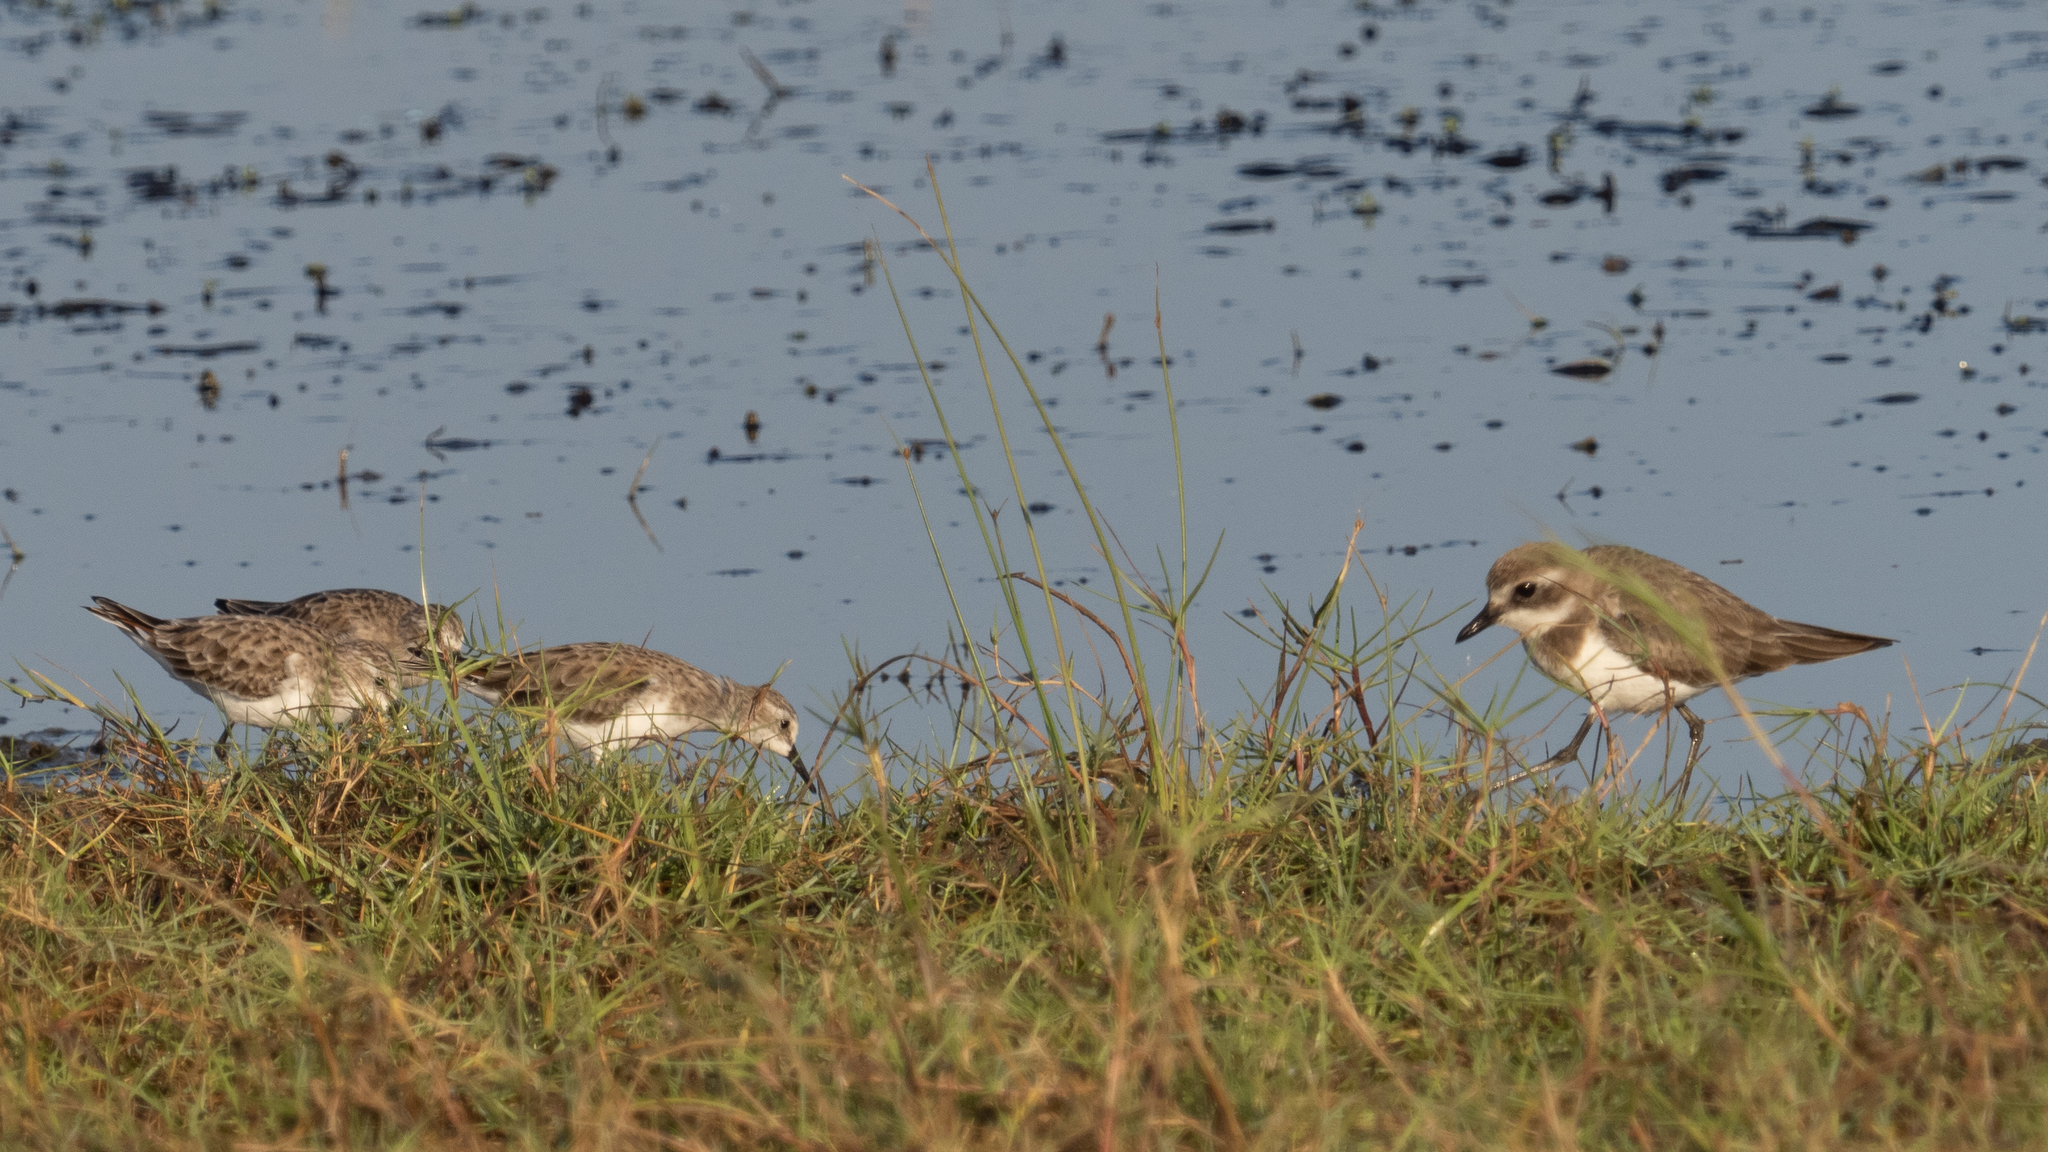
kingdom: Animalia
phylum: Chordata
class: Aves
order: Charadriiformes
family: Scolopacidae
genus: Calidris
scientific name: Calidris minuta
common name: Little stint
